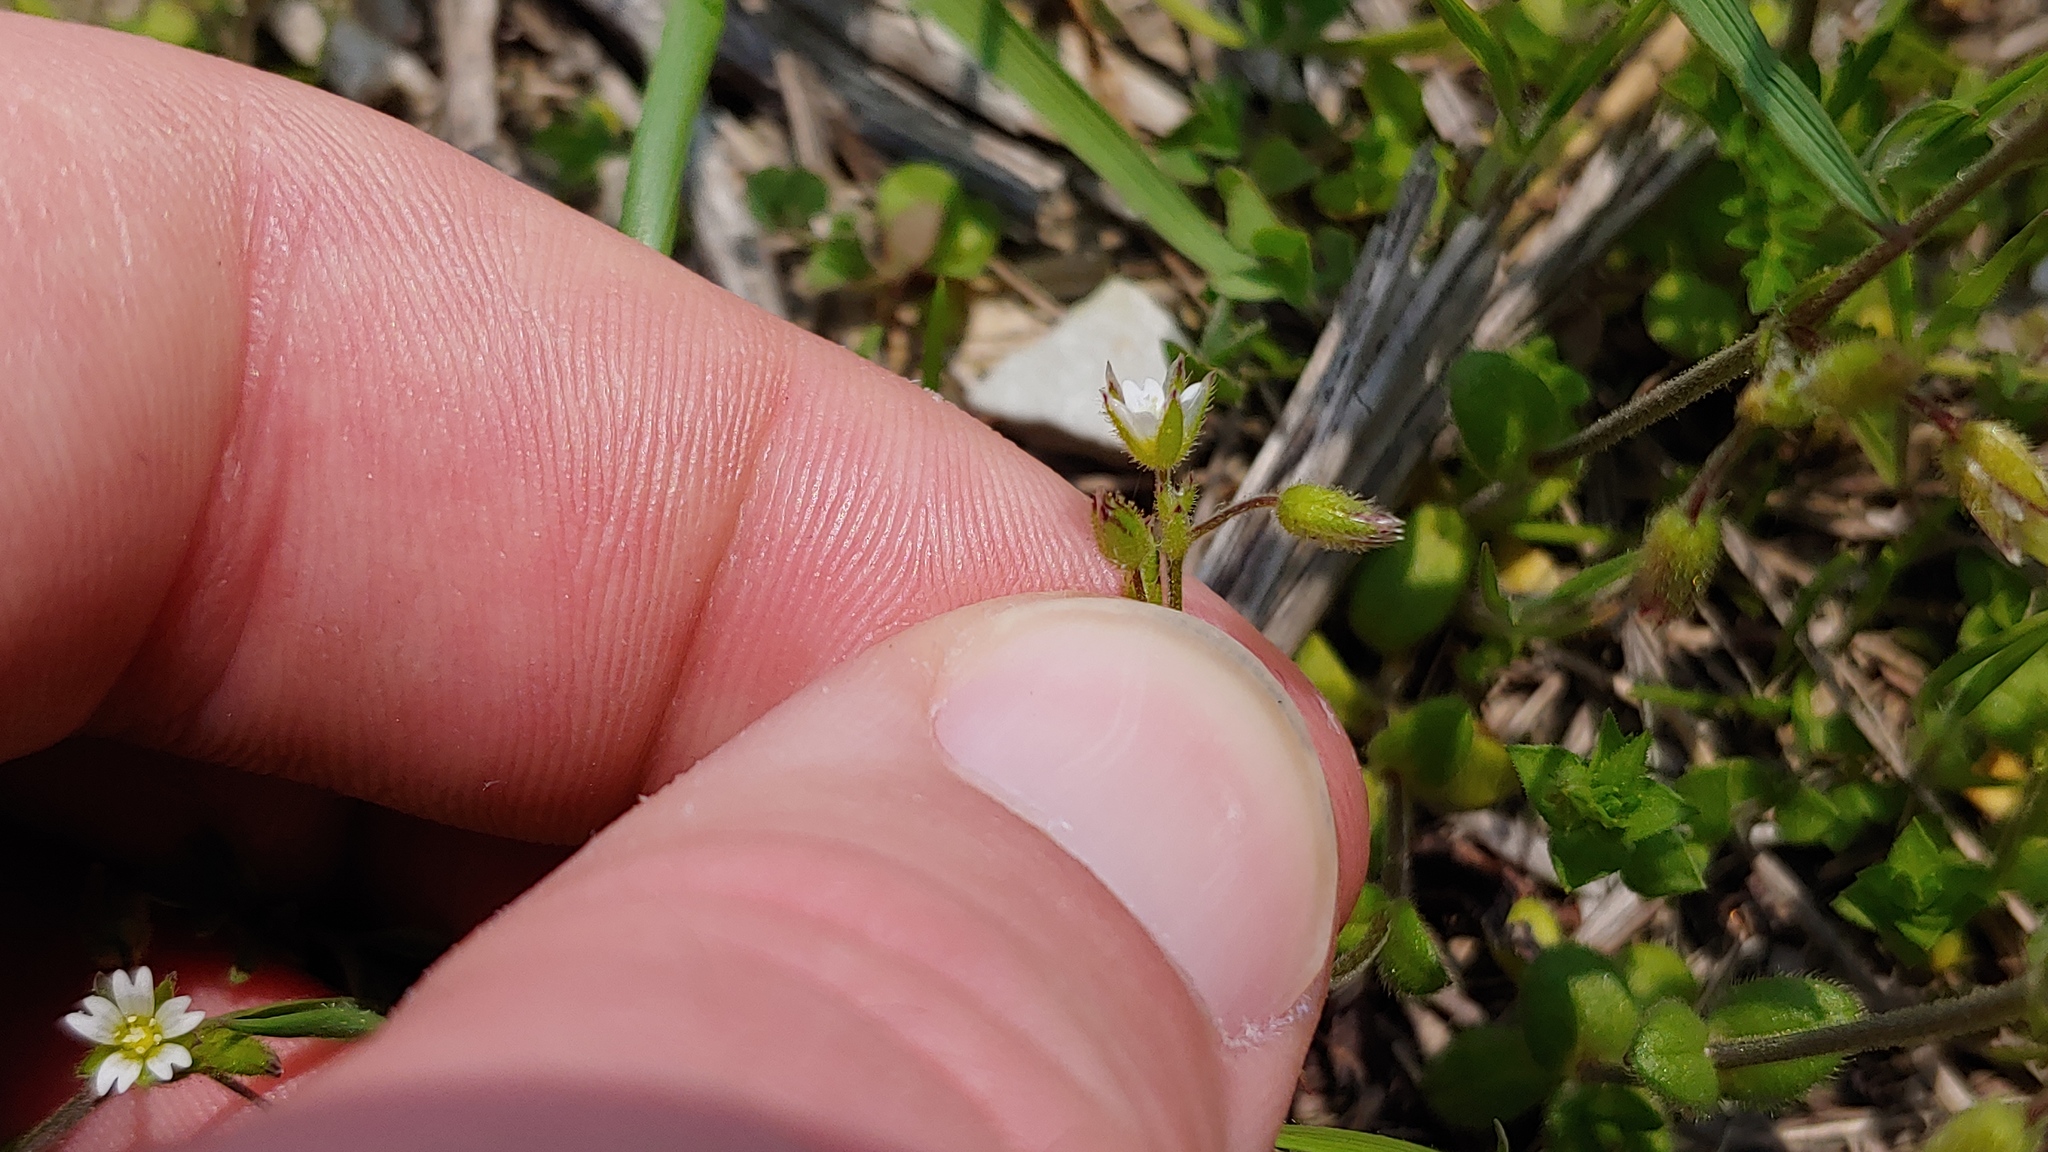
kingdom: Plantae
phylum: Tracheophyta
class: Magnoliopsida
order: Caryophyllales
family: Caryophyllaceae
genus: Cerastium
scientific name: Cerastium semidecandrum
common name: Little mouse-ear
